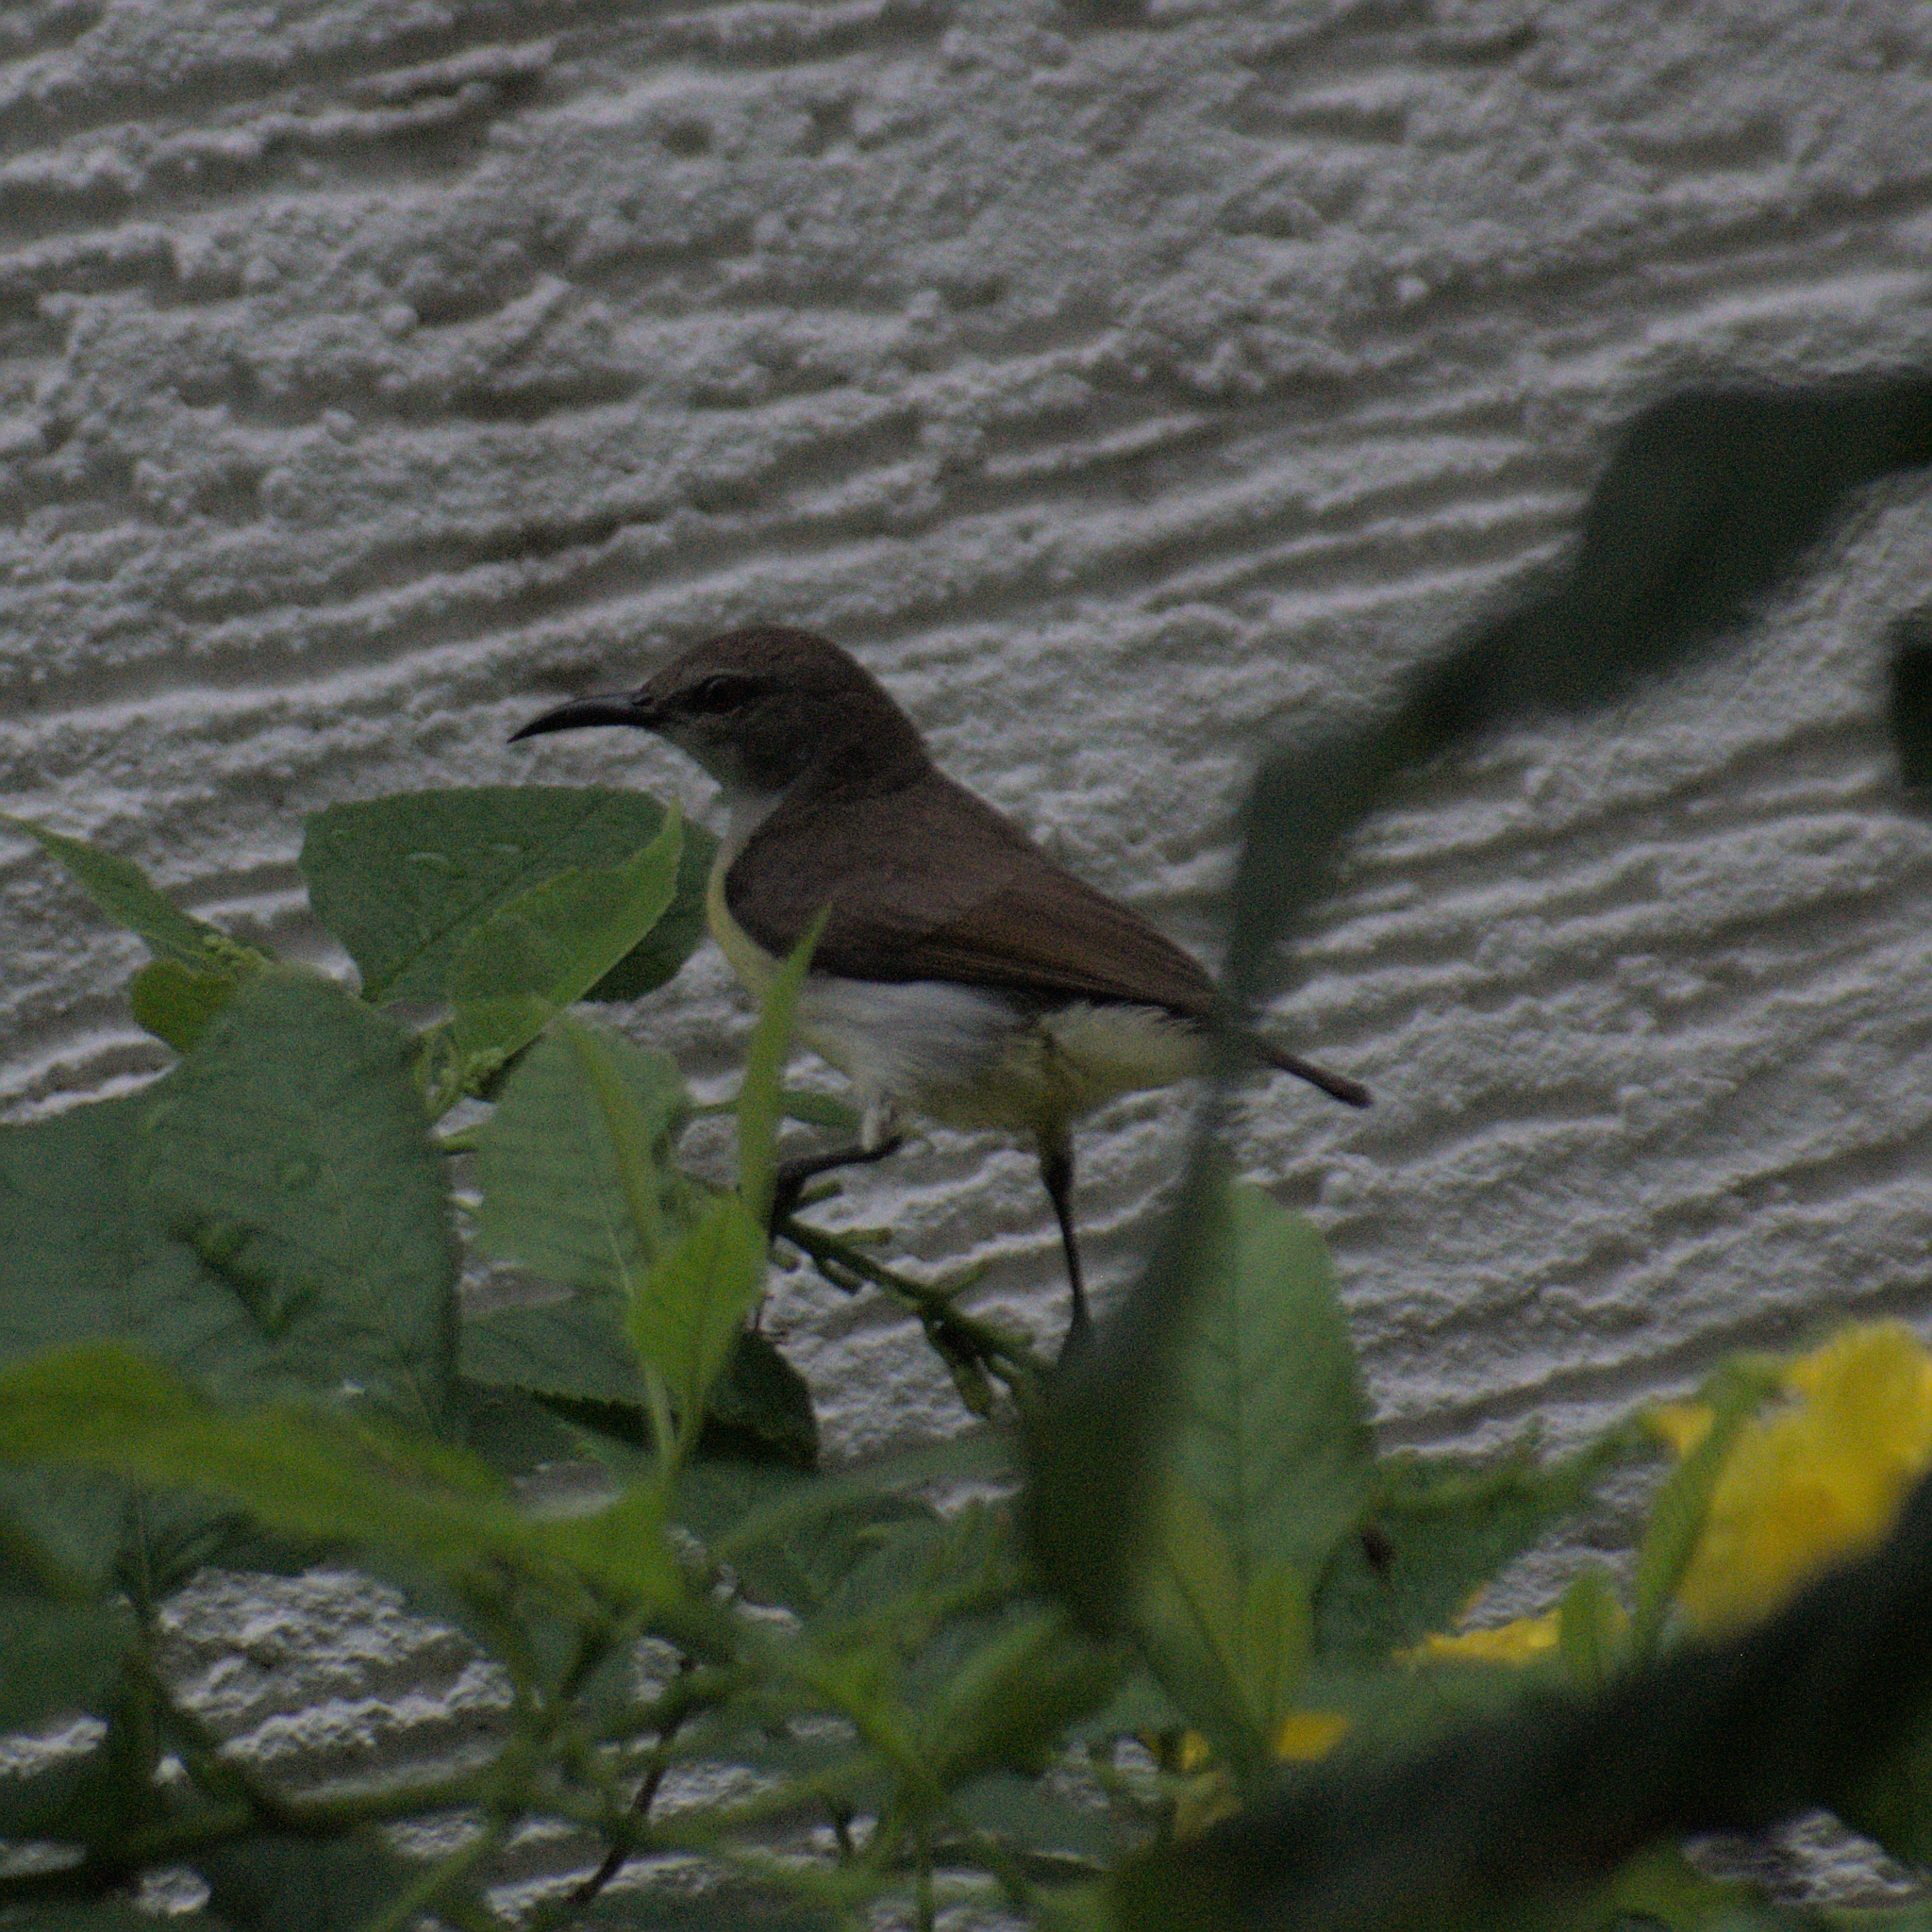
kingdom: Animalia
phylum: Chordata
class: Aves
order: Passeriformes
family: Nectariniidae
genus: Leptocoma
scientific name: Leptocoma zeylonica
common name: Purple-rumped sunbird
